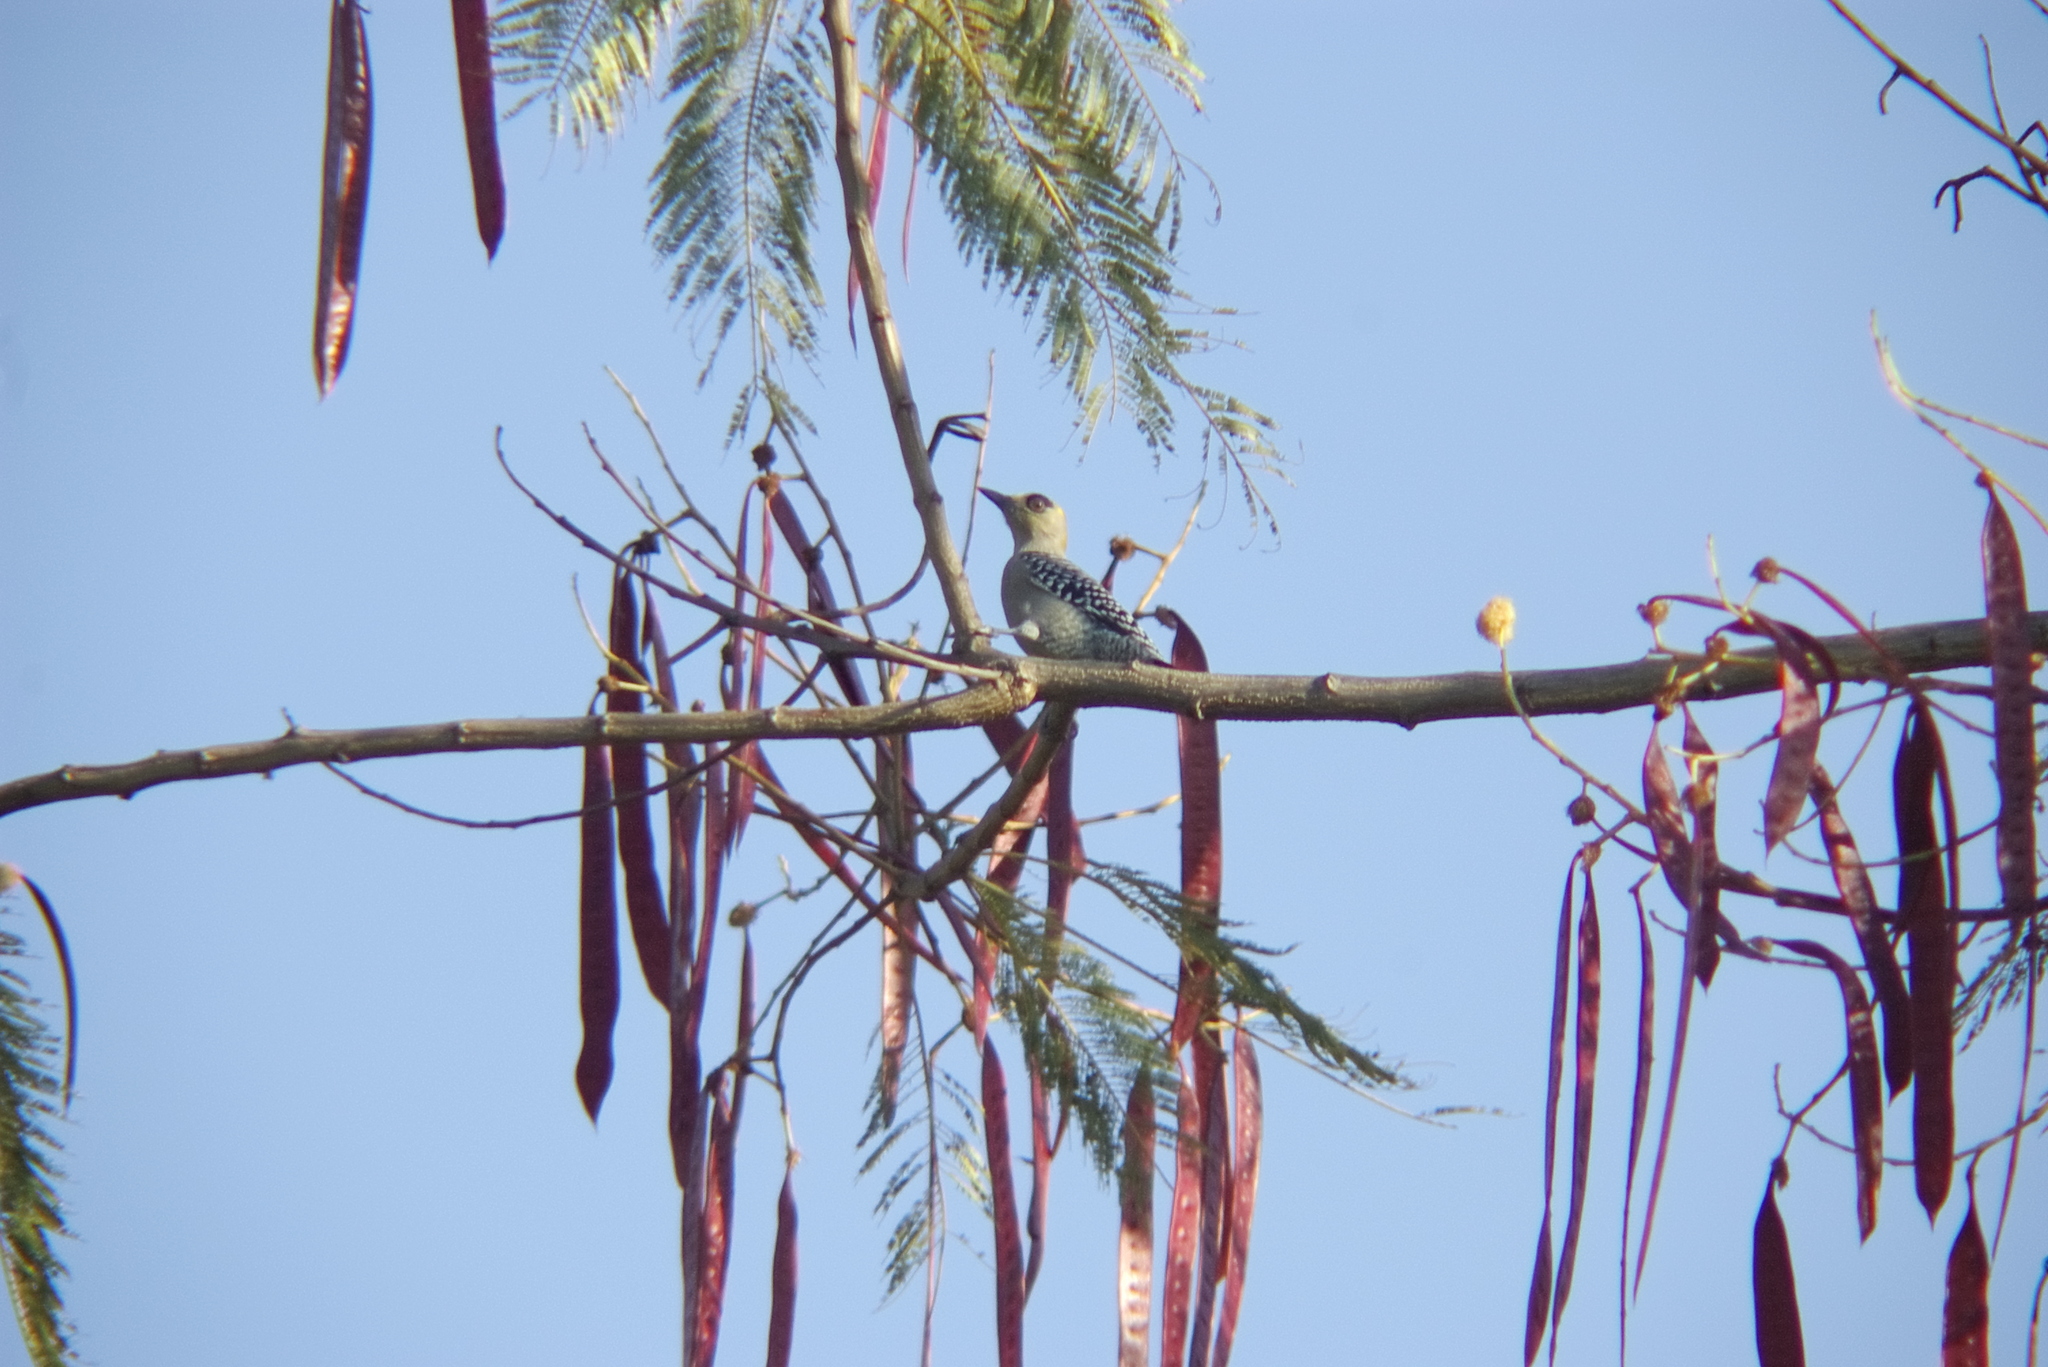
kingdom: Animalia
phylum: Chordata
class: Aves
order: Piciformes
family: Picidae
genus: Melanerpes
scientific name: Melanerpes chrysogenys
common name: Golden-cheeked woodpecker
